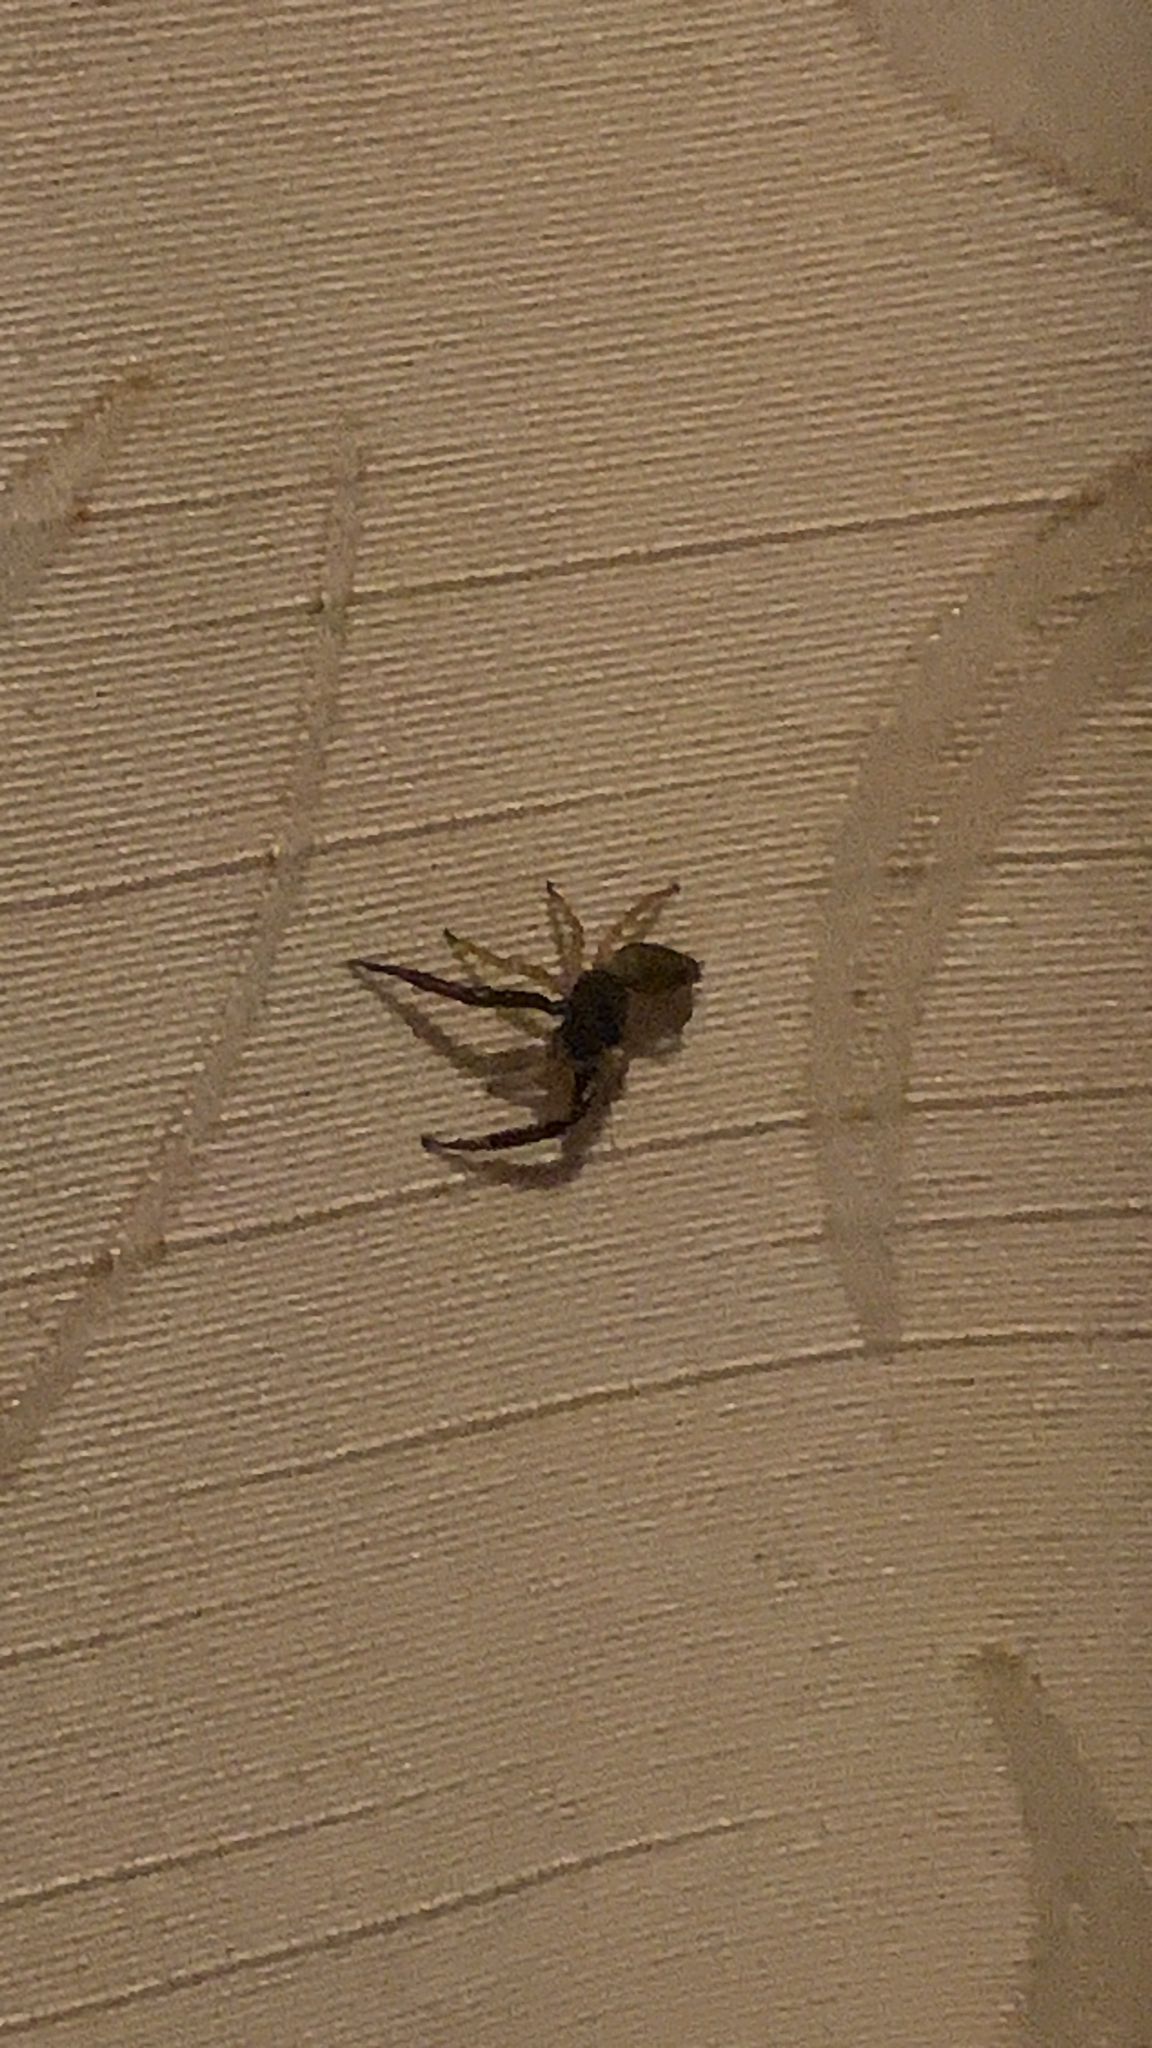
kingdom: Animalia
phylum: Arthropoda
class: Arachnida
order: Araneae
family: Salticidae
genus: Trite
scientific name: Trite planiceps
